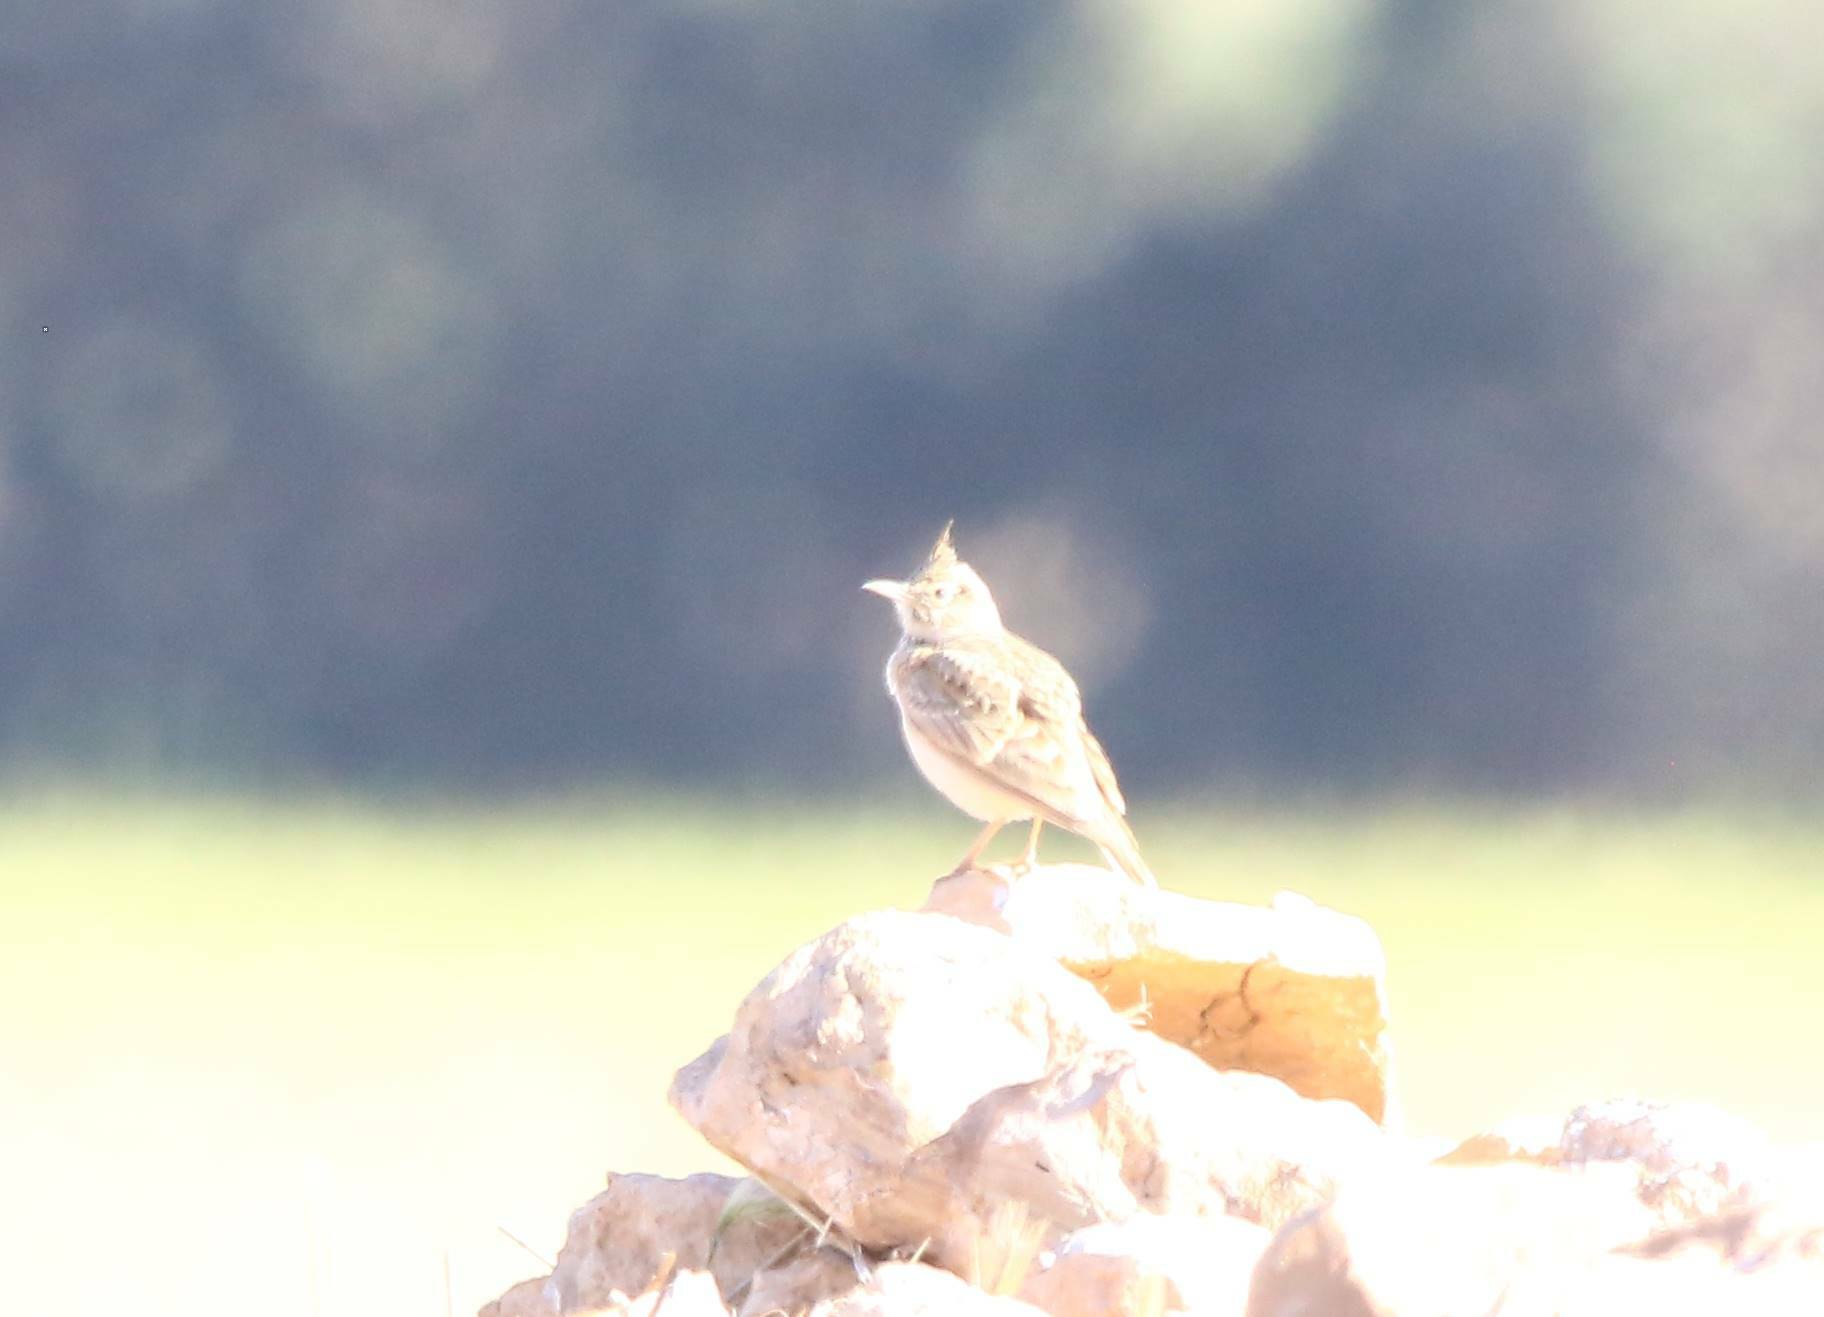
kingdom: Animalia
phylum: Chordata
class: Aves
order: Passeriformes
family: Alaudidae
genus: Galerida
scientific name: Galerida cristata
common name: Crested lark
